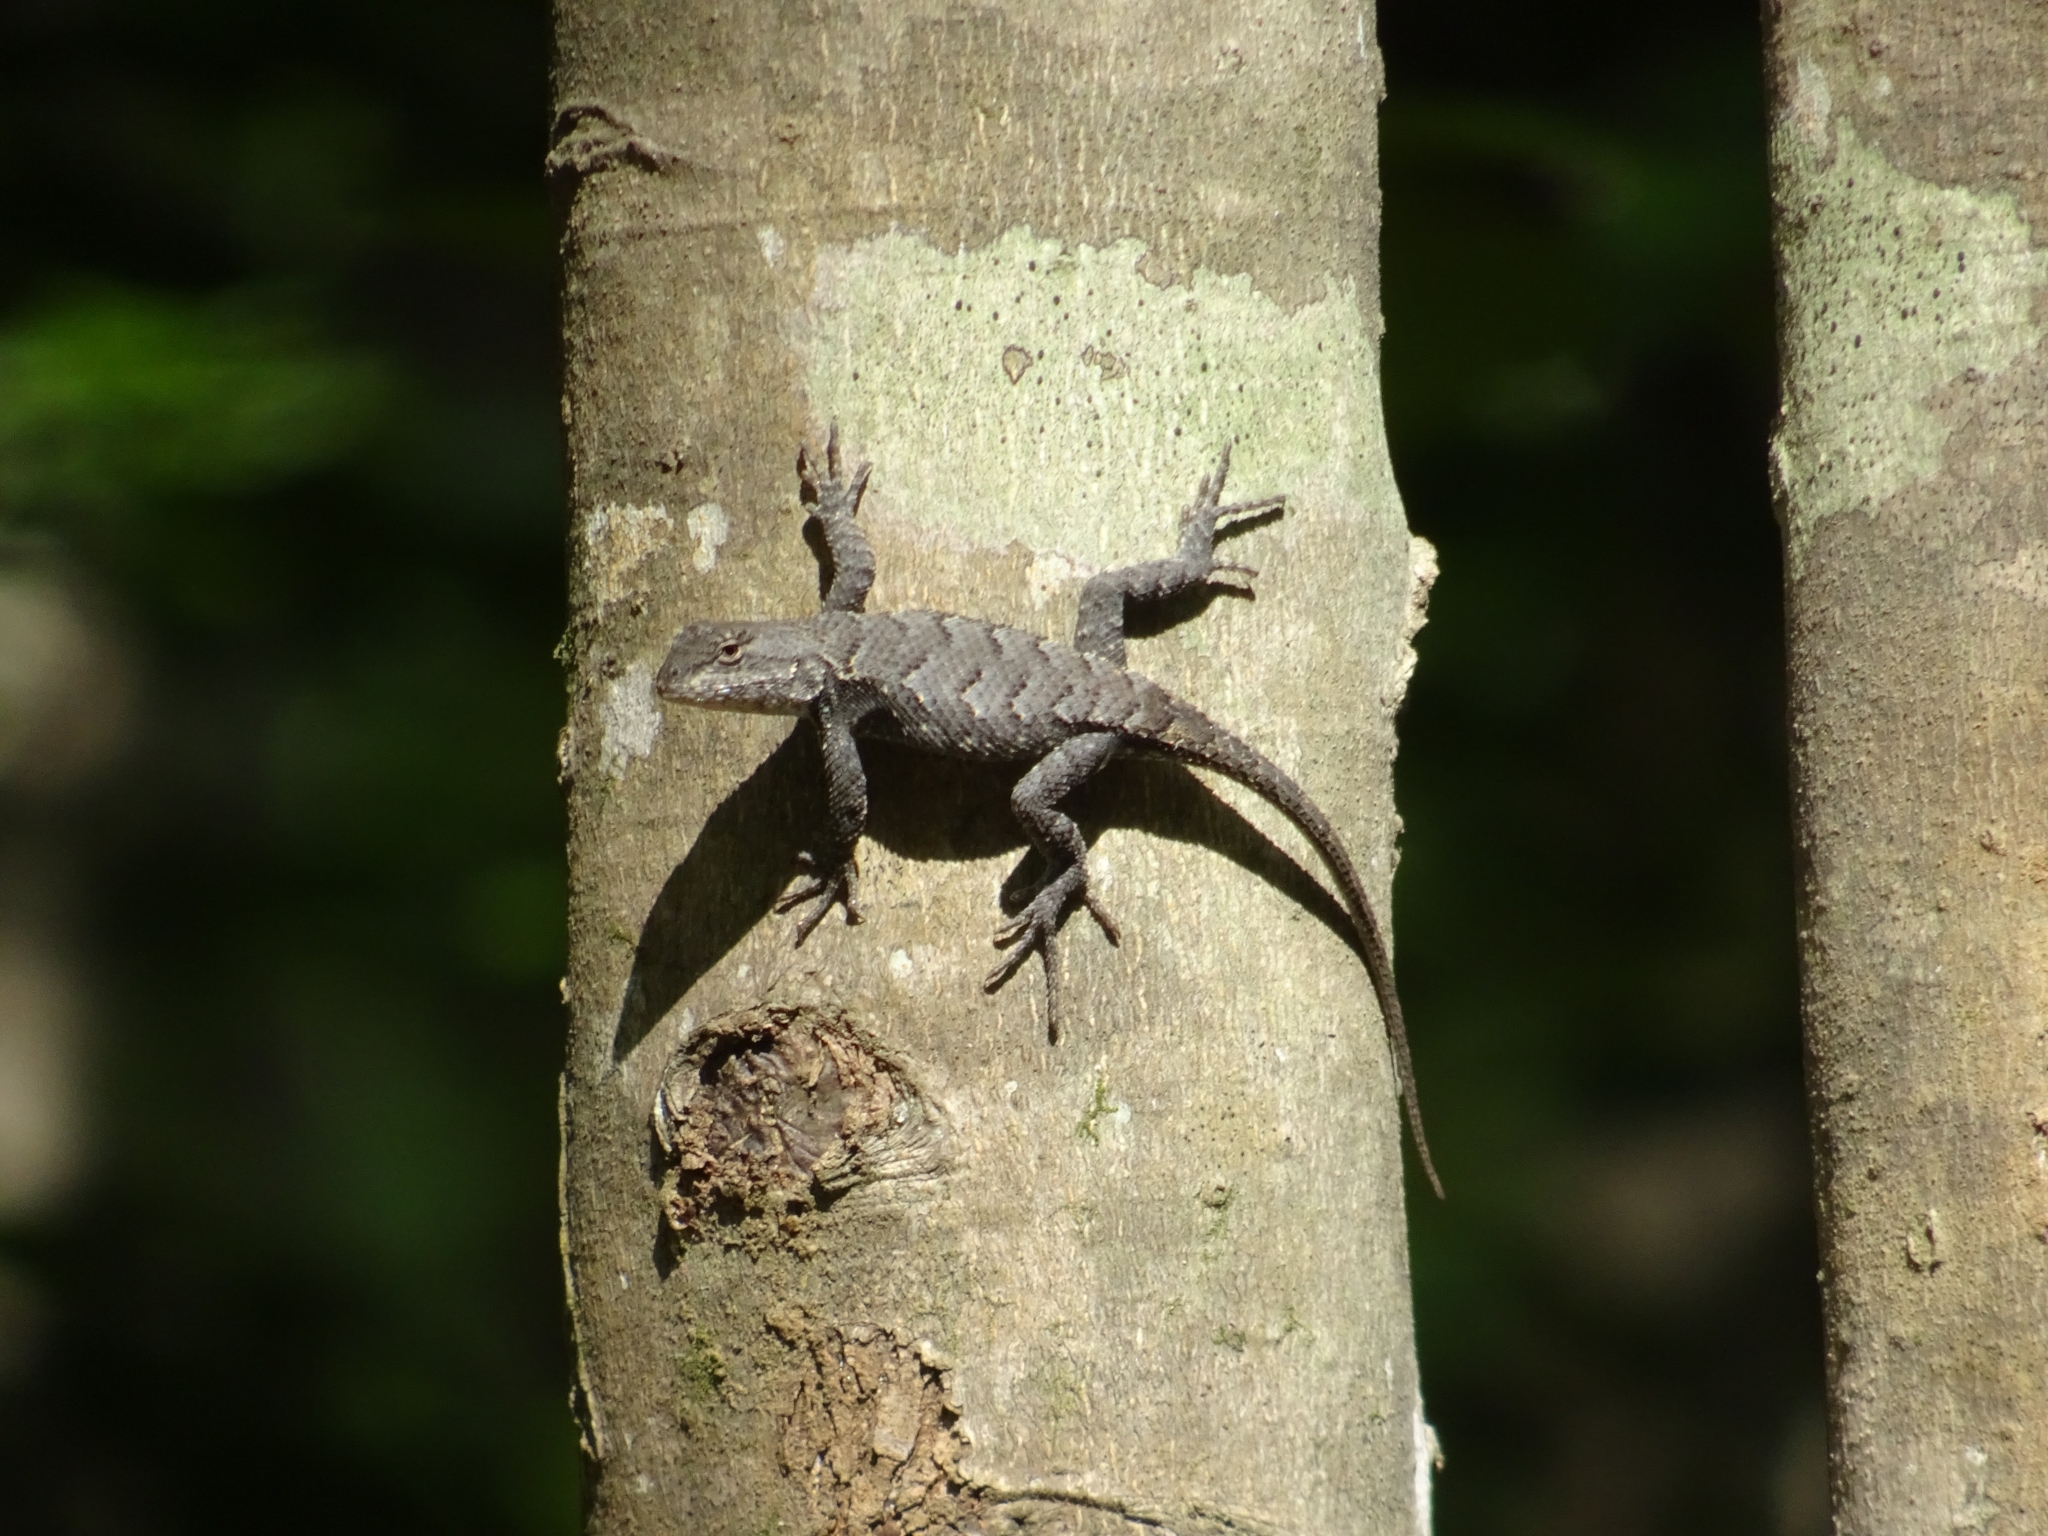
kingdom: Animalia
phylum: Chordata
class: Squamata
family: Phrynosomatidae
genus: Sceloporus
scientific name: Sceloporus consobrinus
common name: Southern prairie lizard
